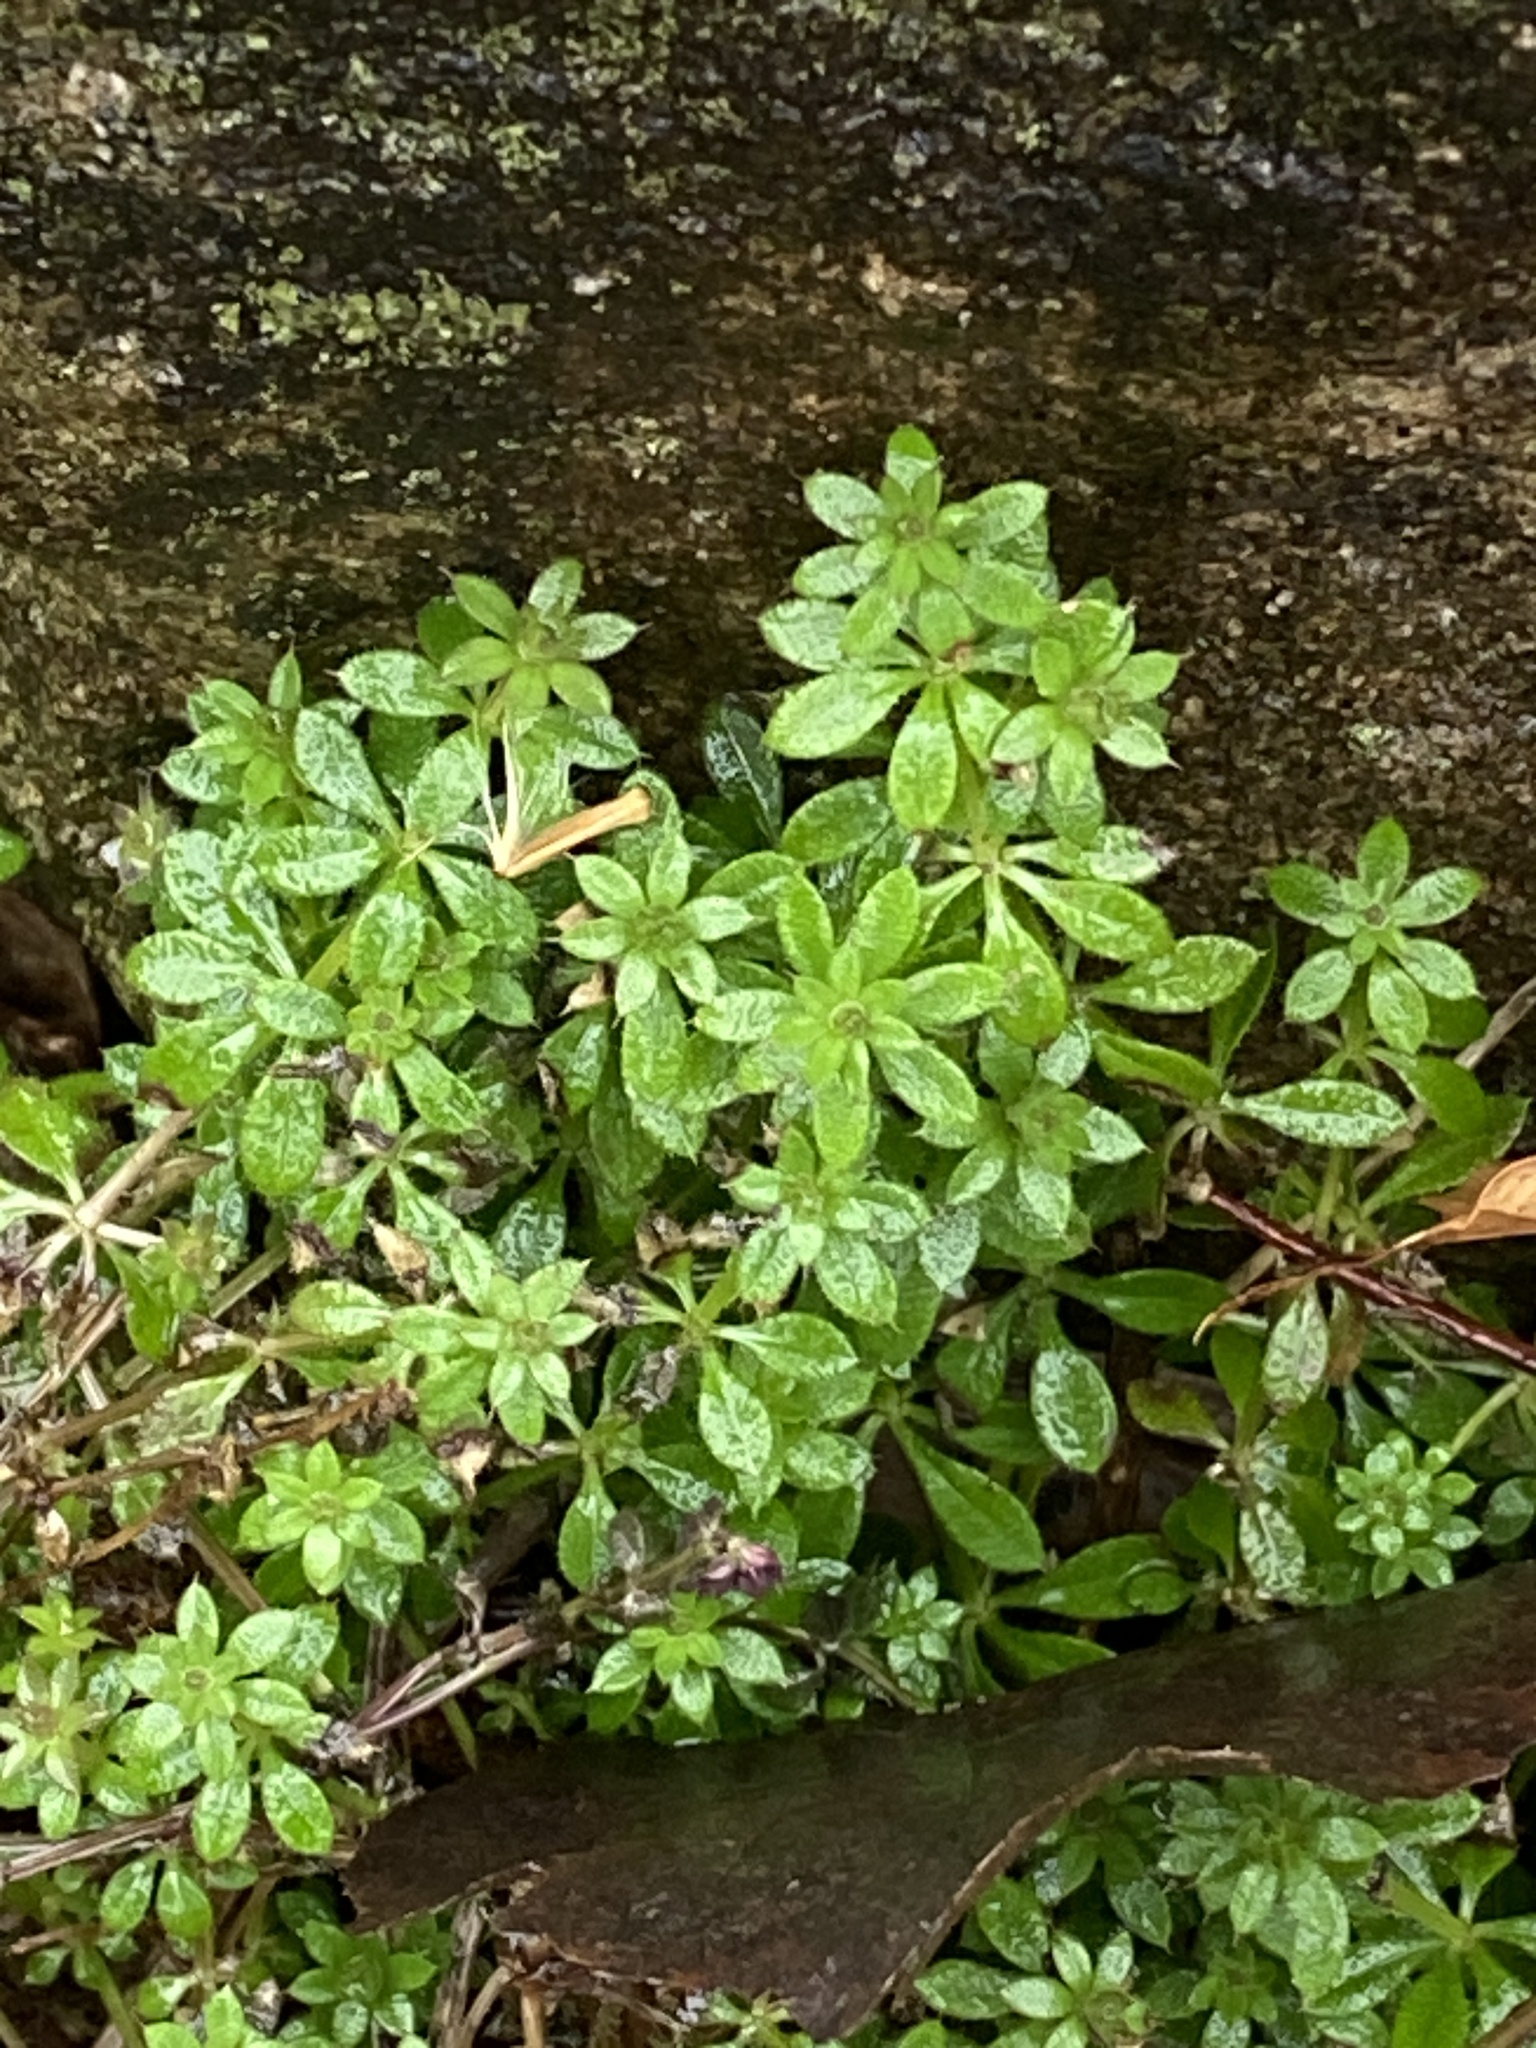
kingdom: Plantae
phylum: Tracheophyta
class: Magnoliopsida
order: Gentianales
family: Rubiaceae
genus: Galium
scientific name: Galium aparine
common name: Cleavers
